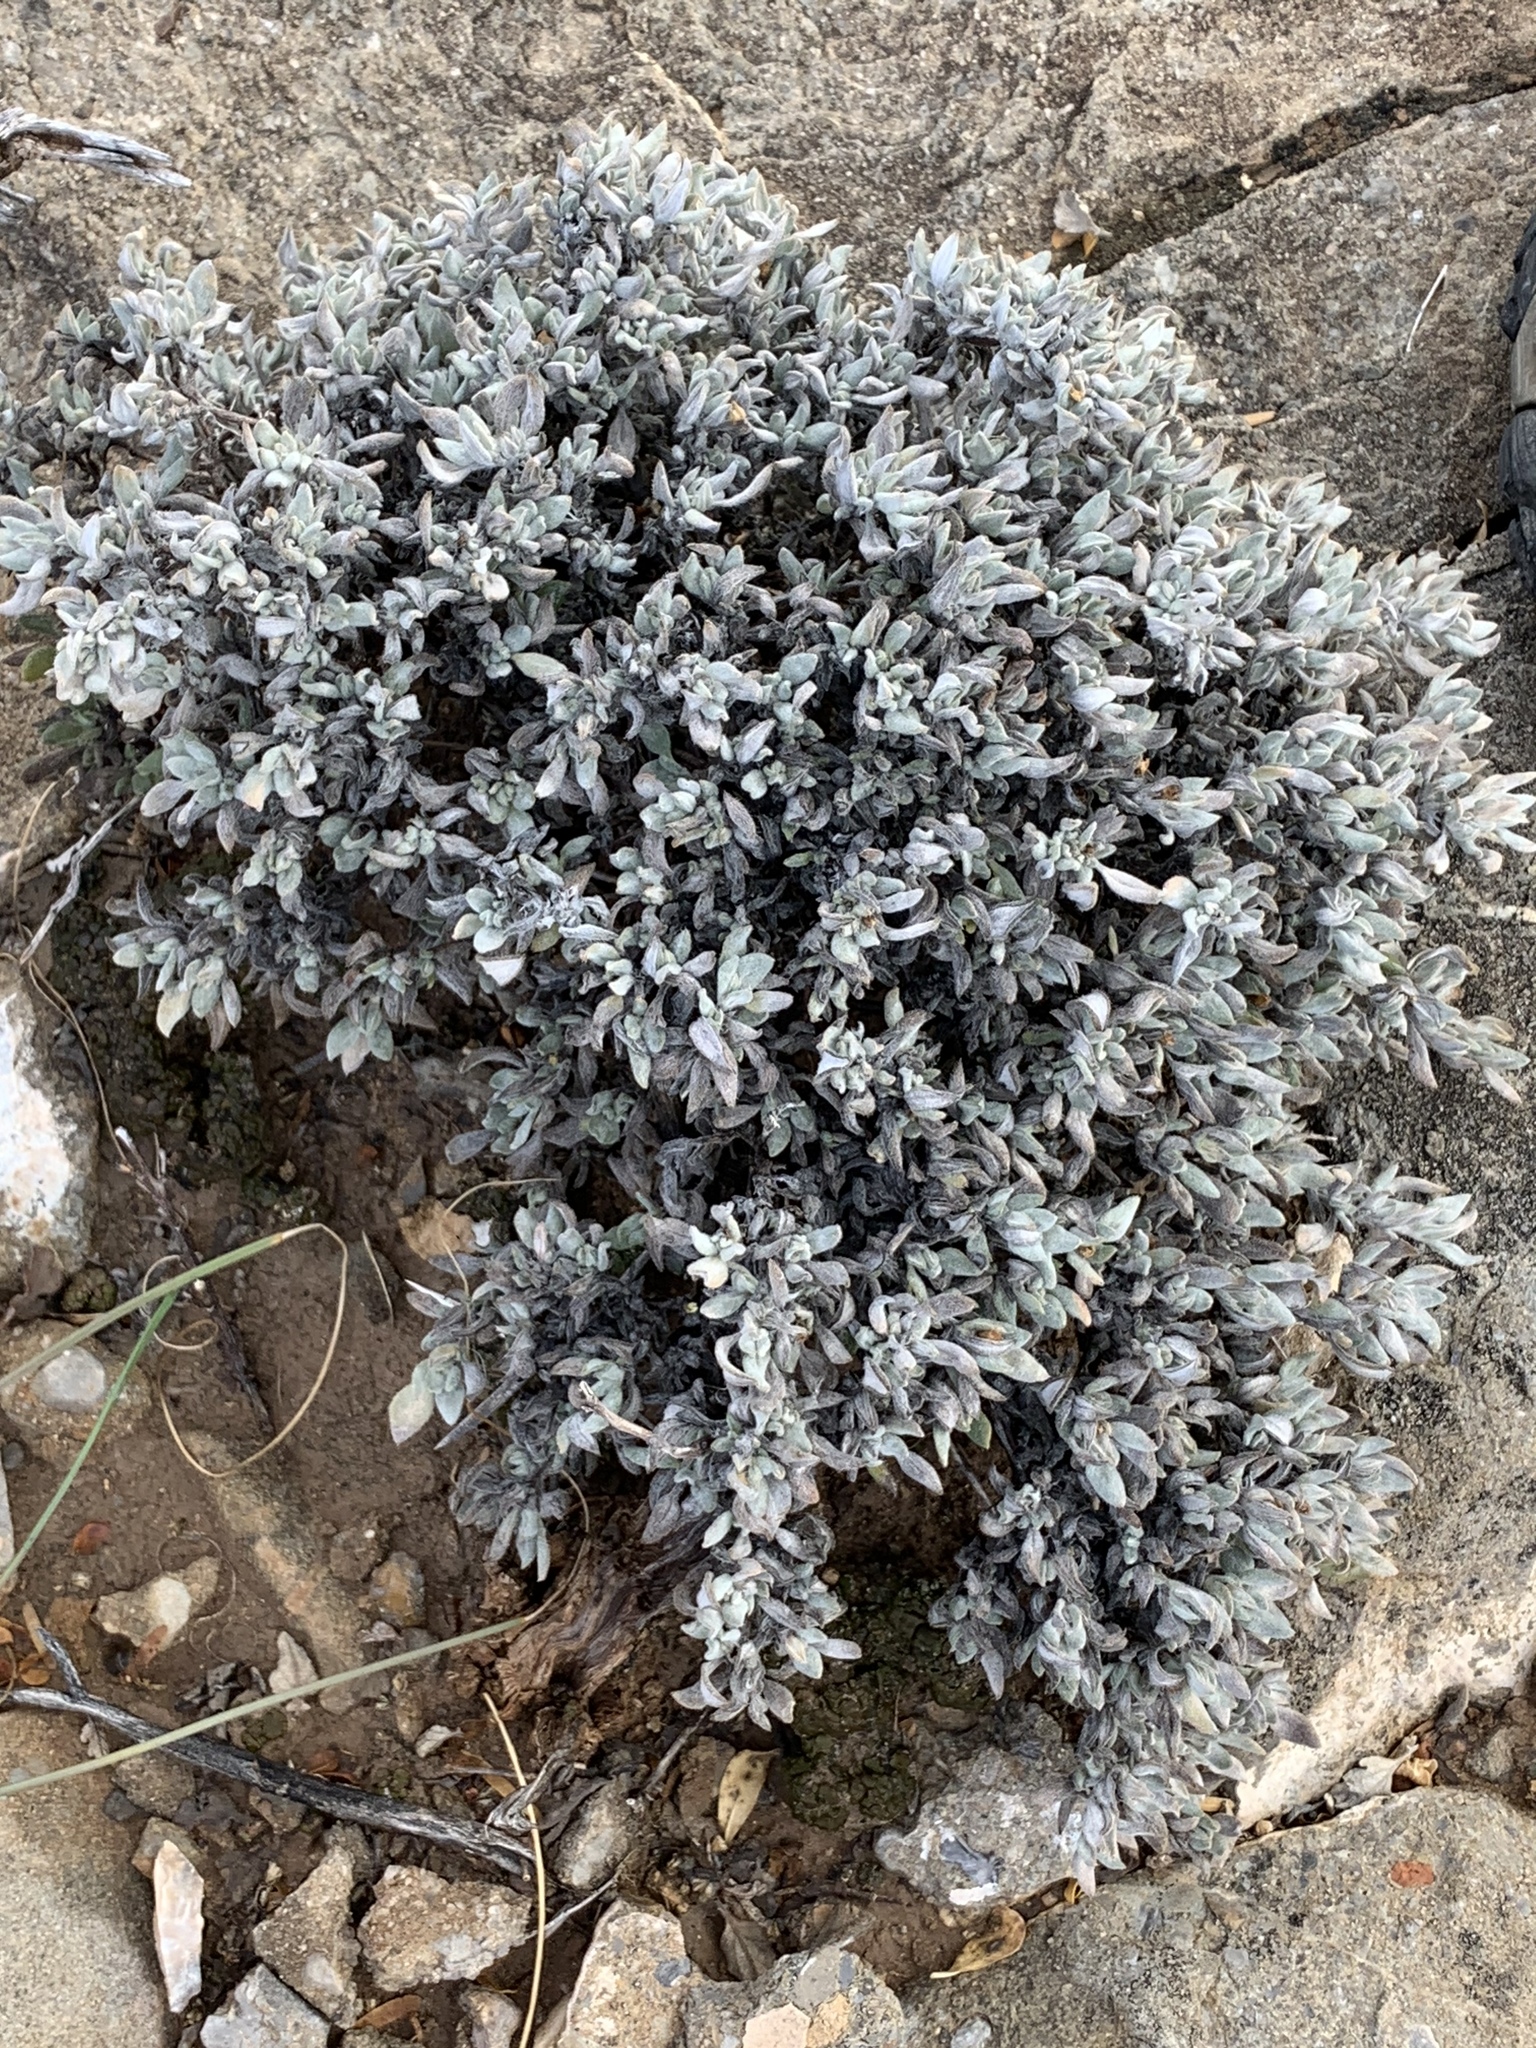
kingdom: Plantae
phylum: Tracheophyta
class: Magnoliopsida
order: Boraginales
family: Ehretiaceae
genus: Tiquilia
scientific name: Tiquilia canescens
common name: Hairy tiquilia
